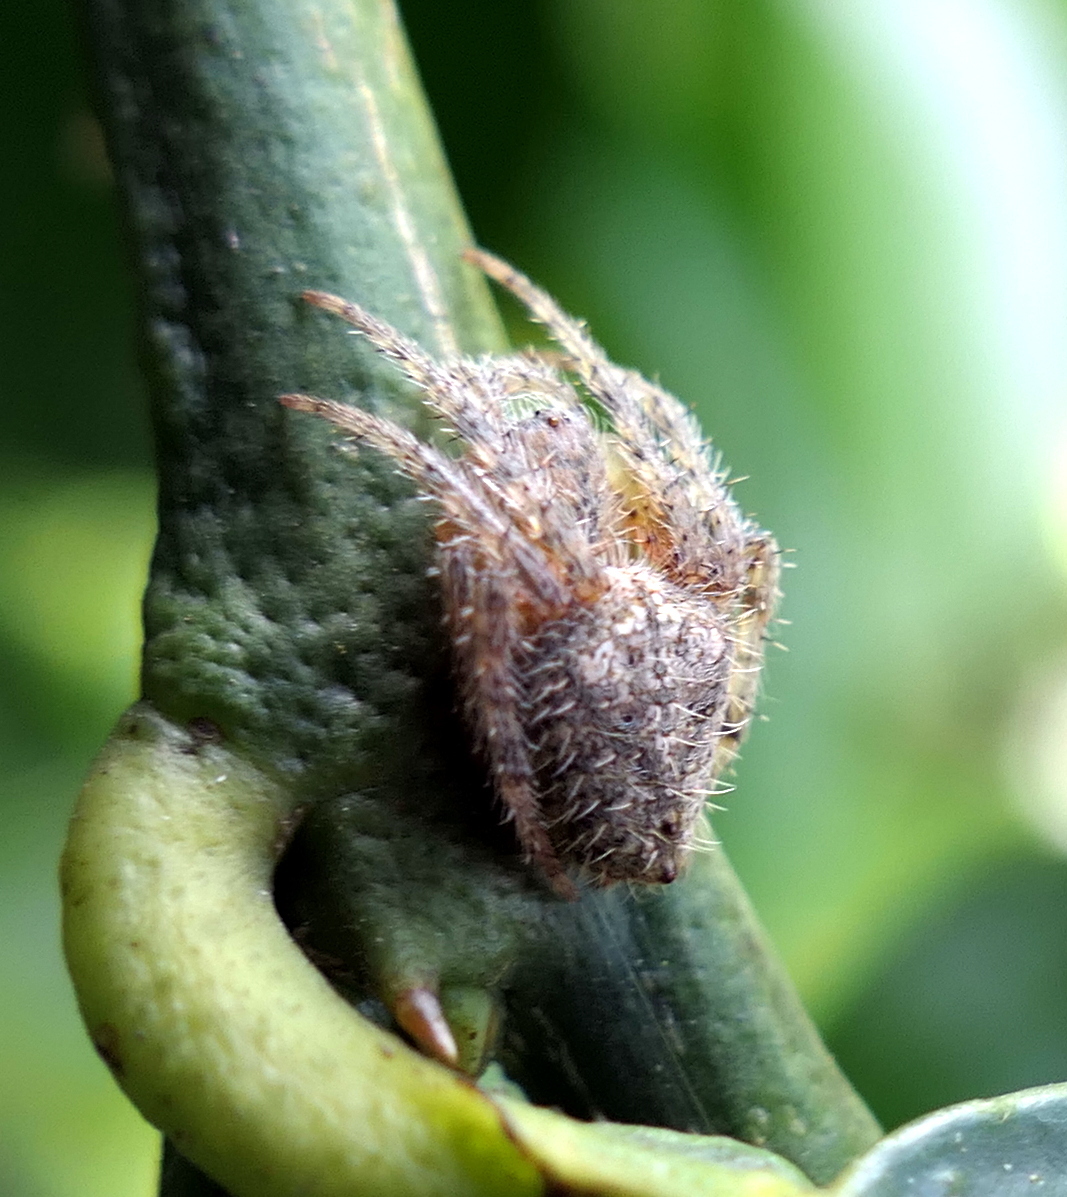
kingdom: Animalia
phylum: Arthropoda
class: Arachnida
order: Araneae
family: Araneidae
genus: Eriophora
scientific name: Eriophora edax
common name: Orb weavers
